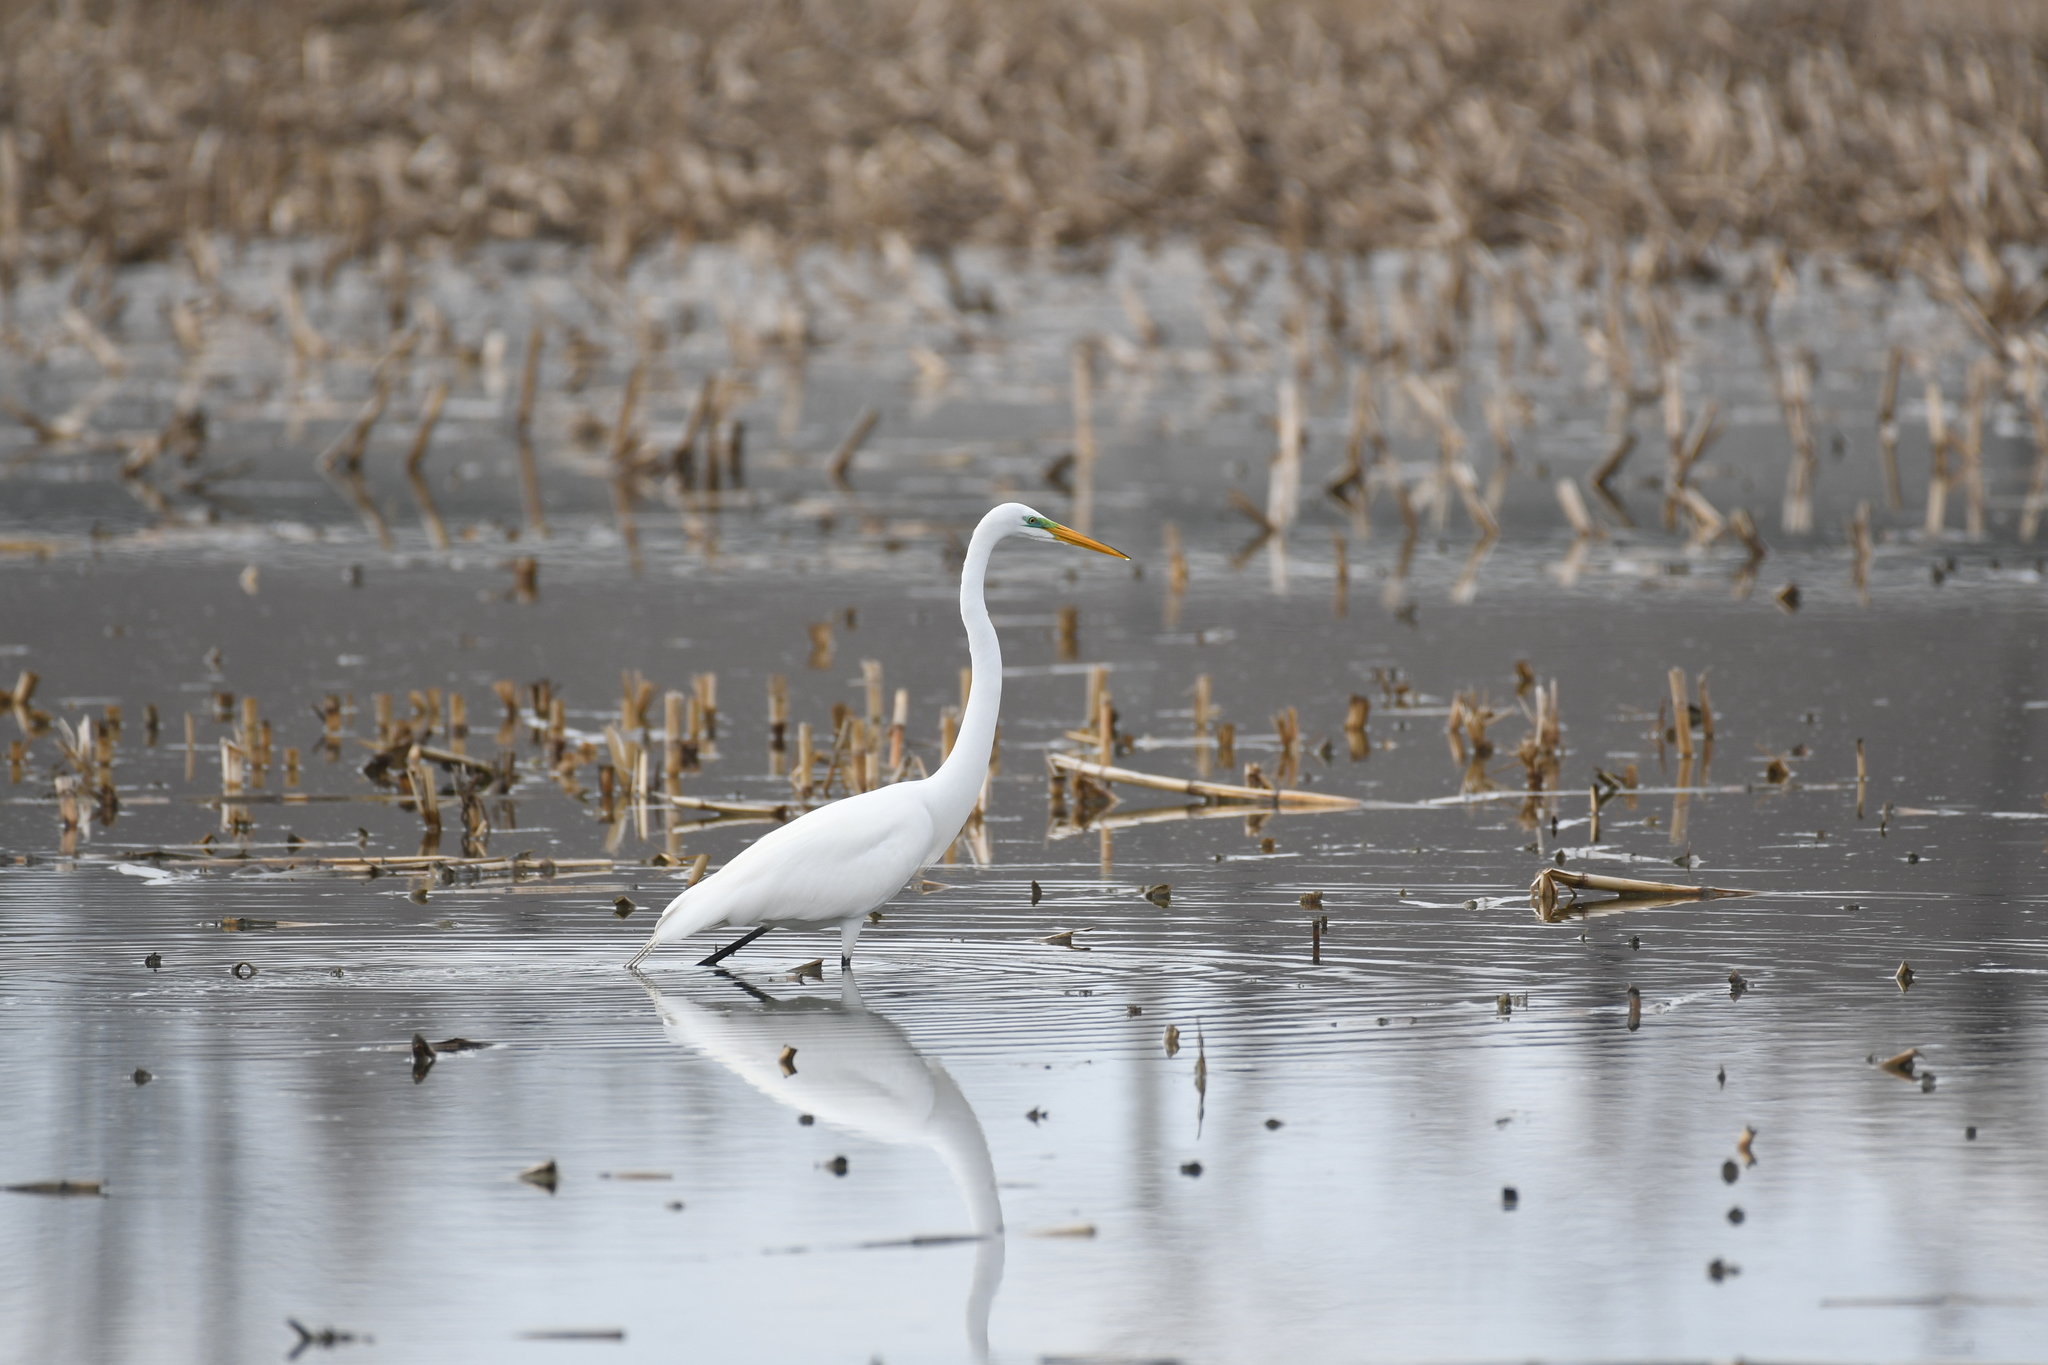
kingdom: Animalia
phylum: Chordata
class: Aves
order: Pelecaniformes
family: Ardeidae
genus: Ardea
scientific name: Ardea alba
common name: Great egret
